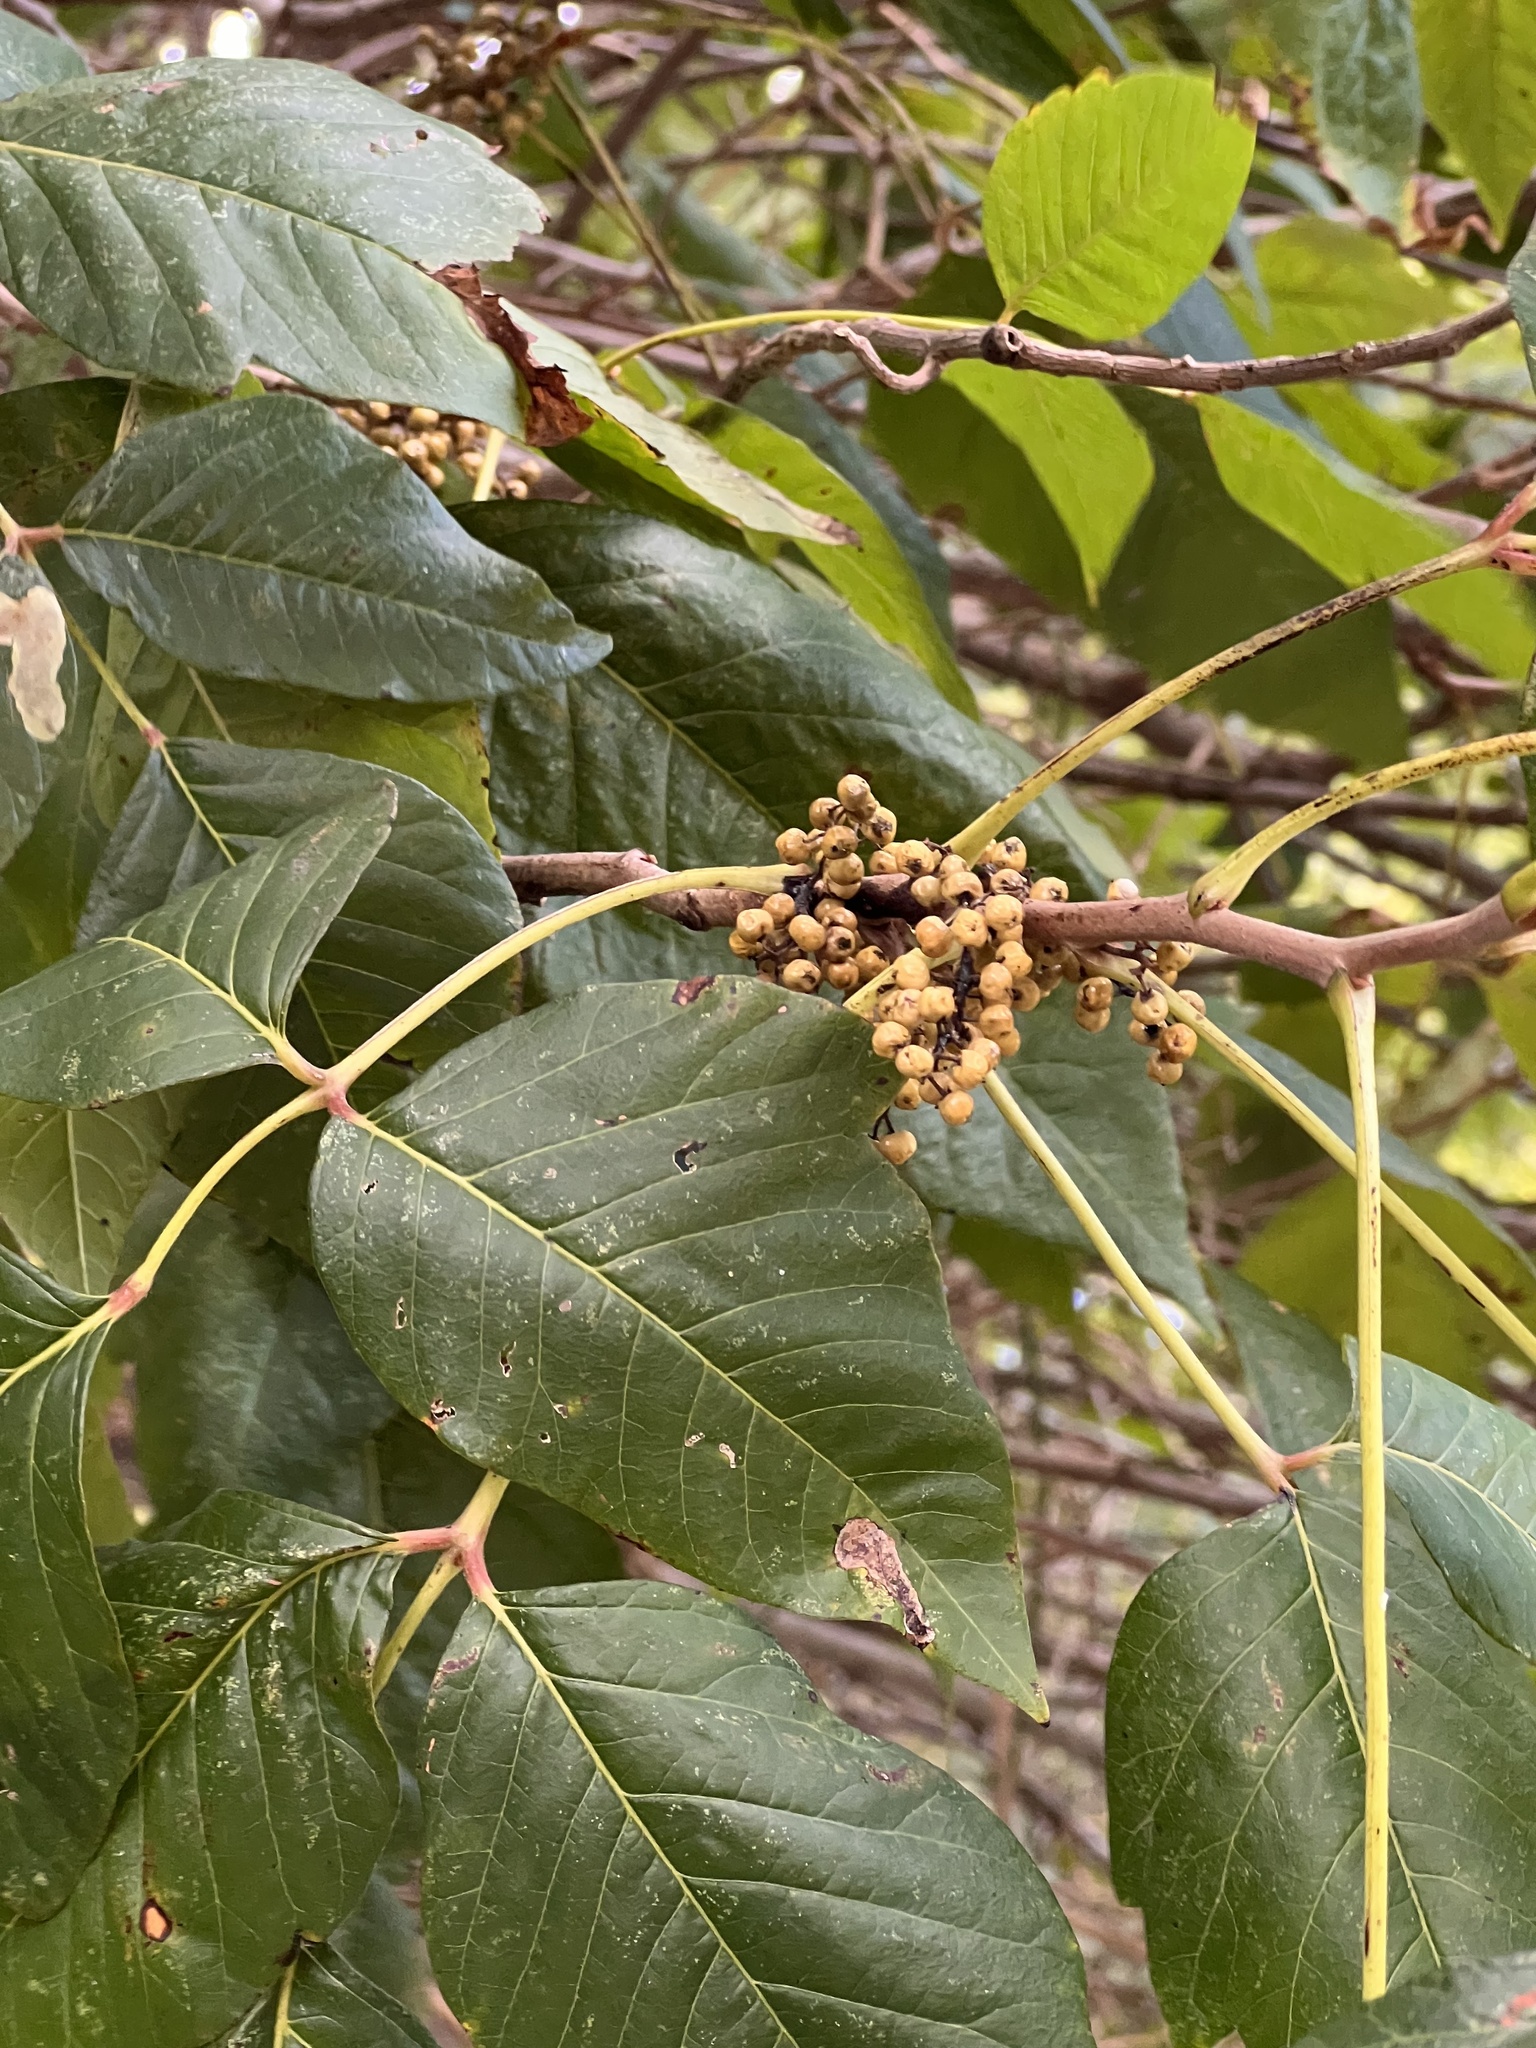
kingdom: Plantae
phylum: Tracheophyta
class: Magnoliopsida
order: Sapindales
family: Anacardiaceae
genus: Toxicodendron
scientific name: Toxicodendron radicans
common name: Poison ivy
